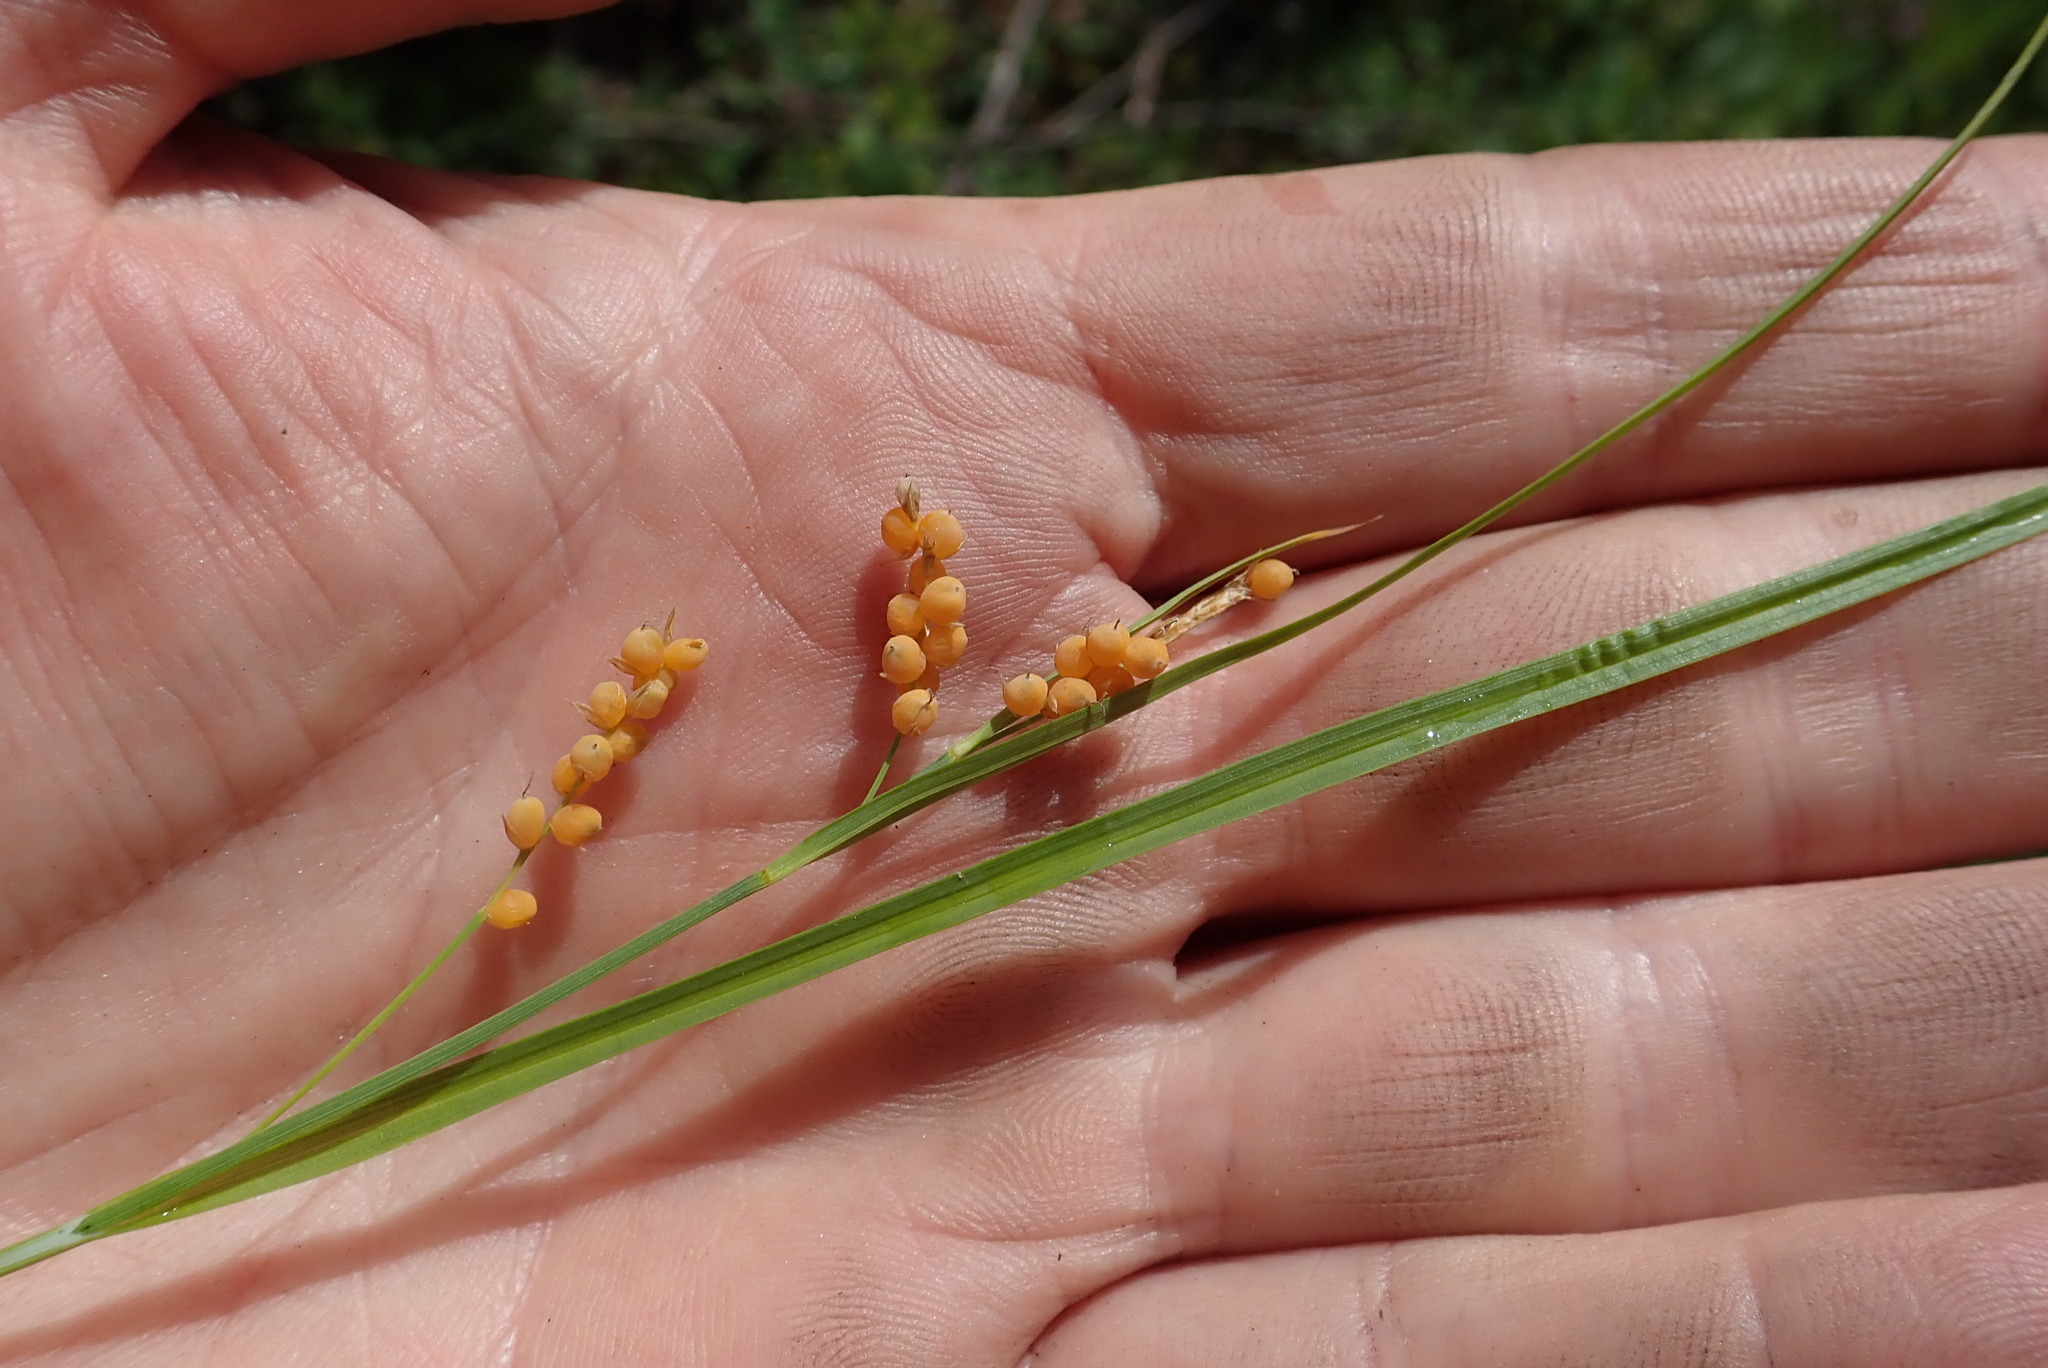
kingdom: Plantae
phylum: Tracheophyta
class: Liliopsida
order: Poales
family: Cyperaceae
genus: Carex
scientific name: Carex aurea
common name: Golden sedge
